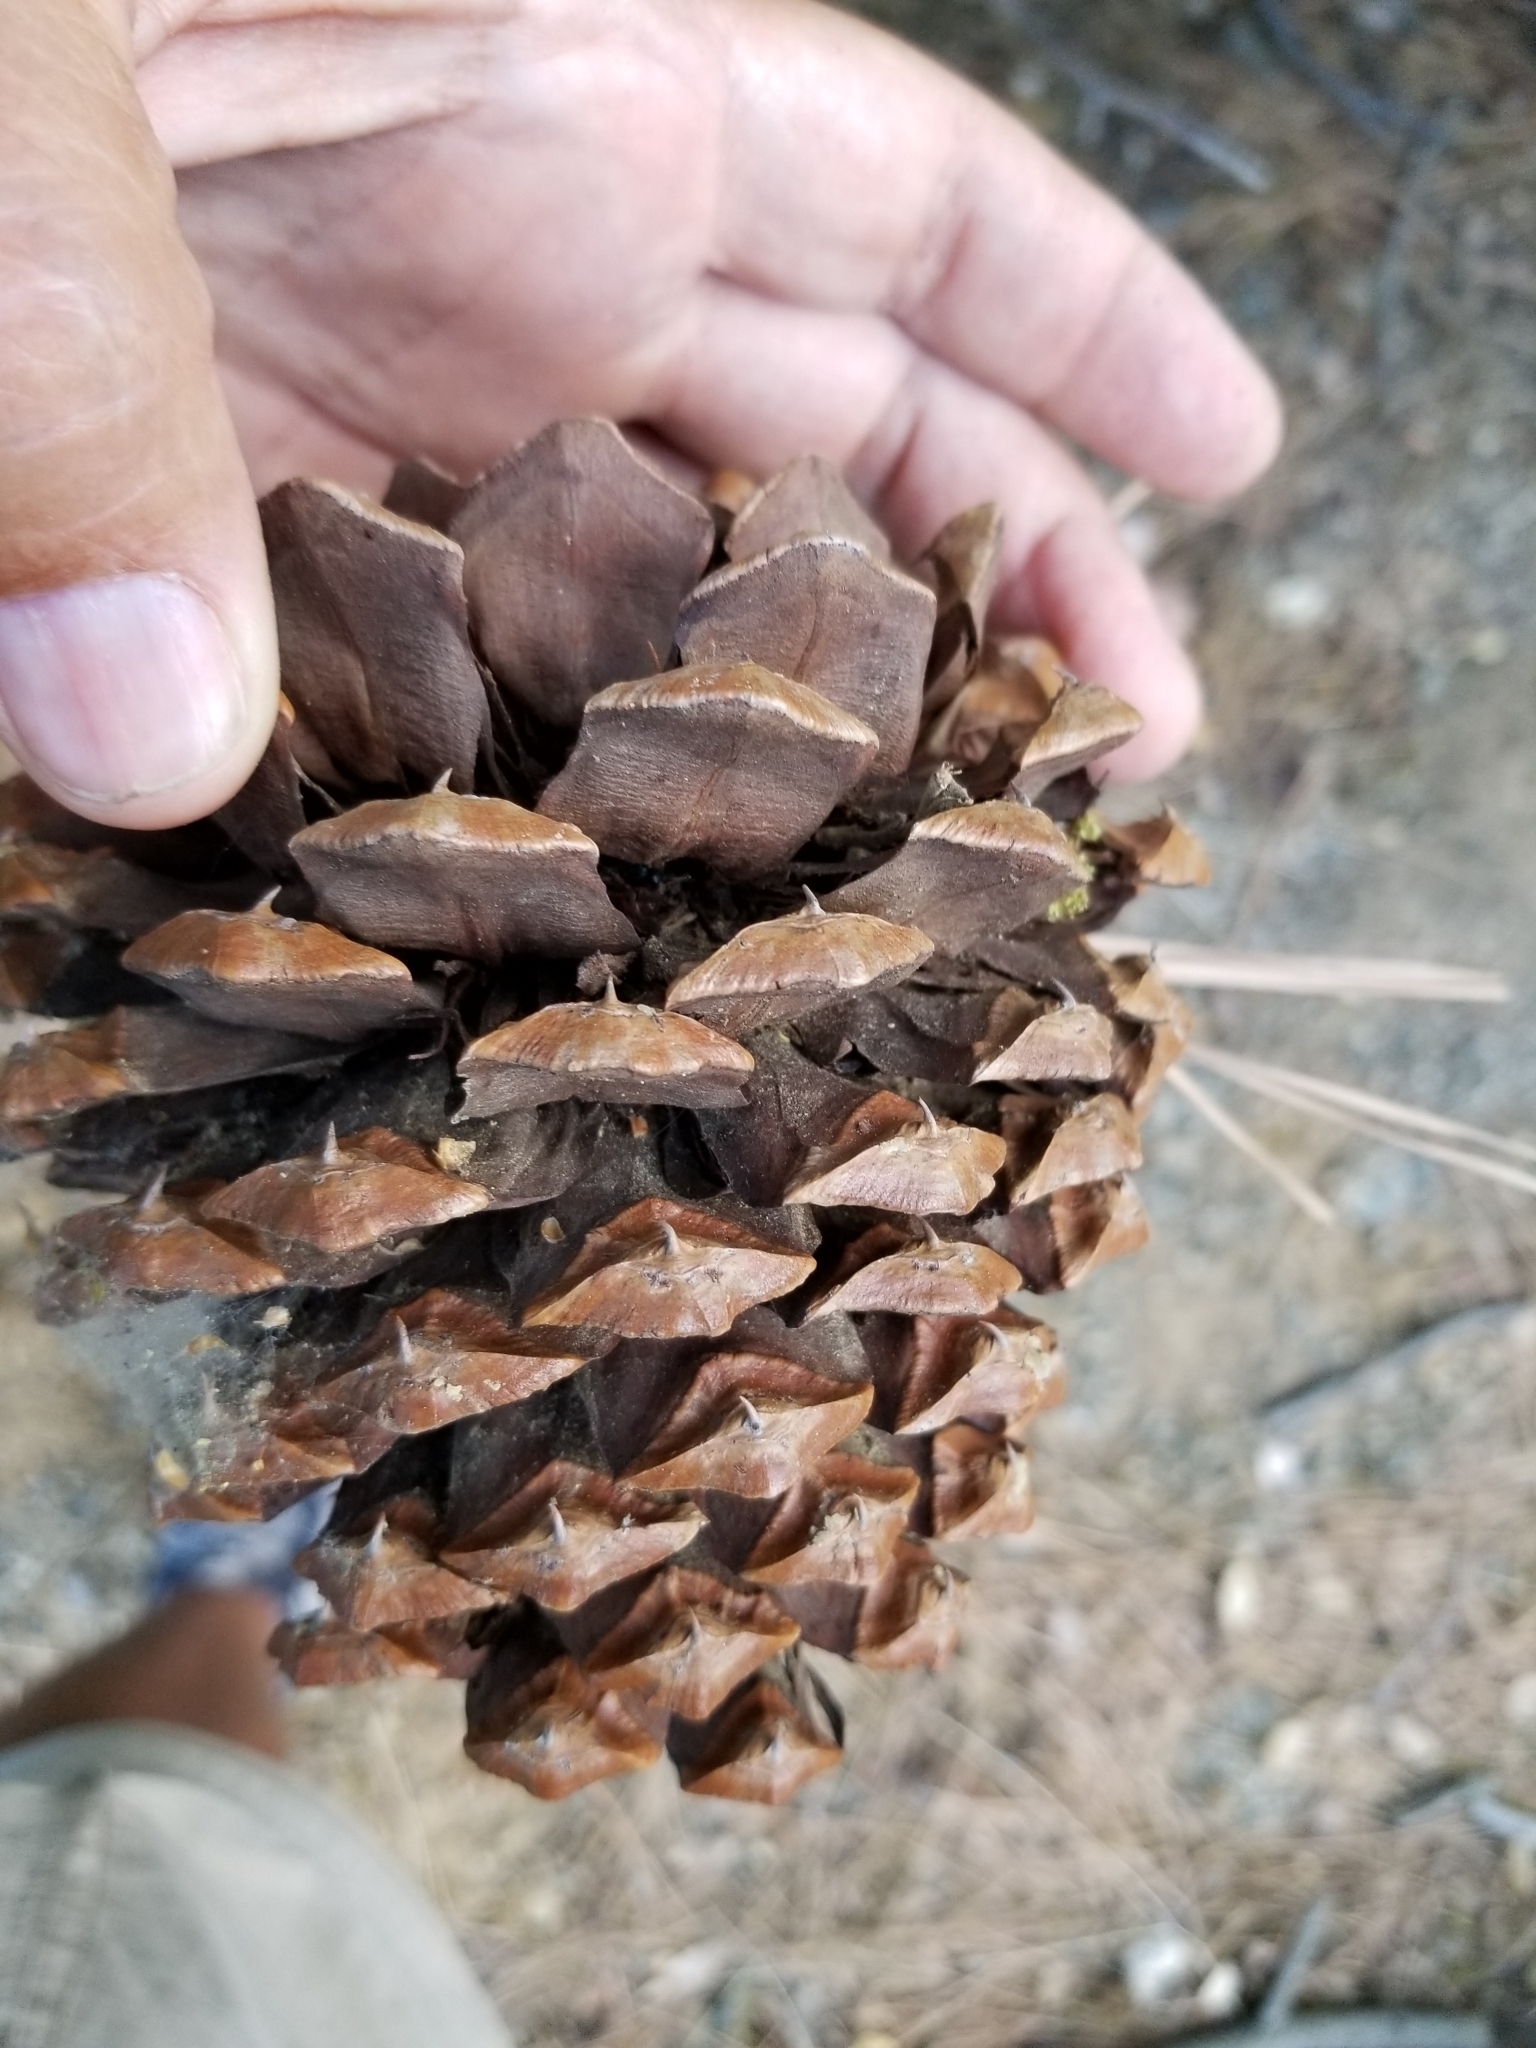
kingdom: Plantae
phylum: Tracheophyta
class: Pinopsida
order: Pinales
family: Pinaceae
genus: Pinus
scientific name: Pinus jeffreyi
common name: Jeffrey pine
